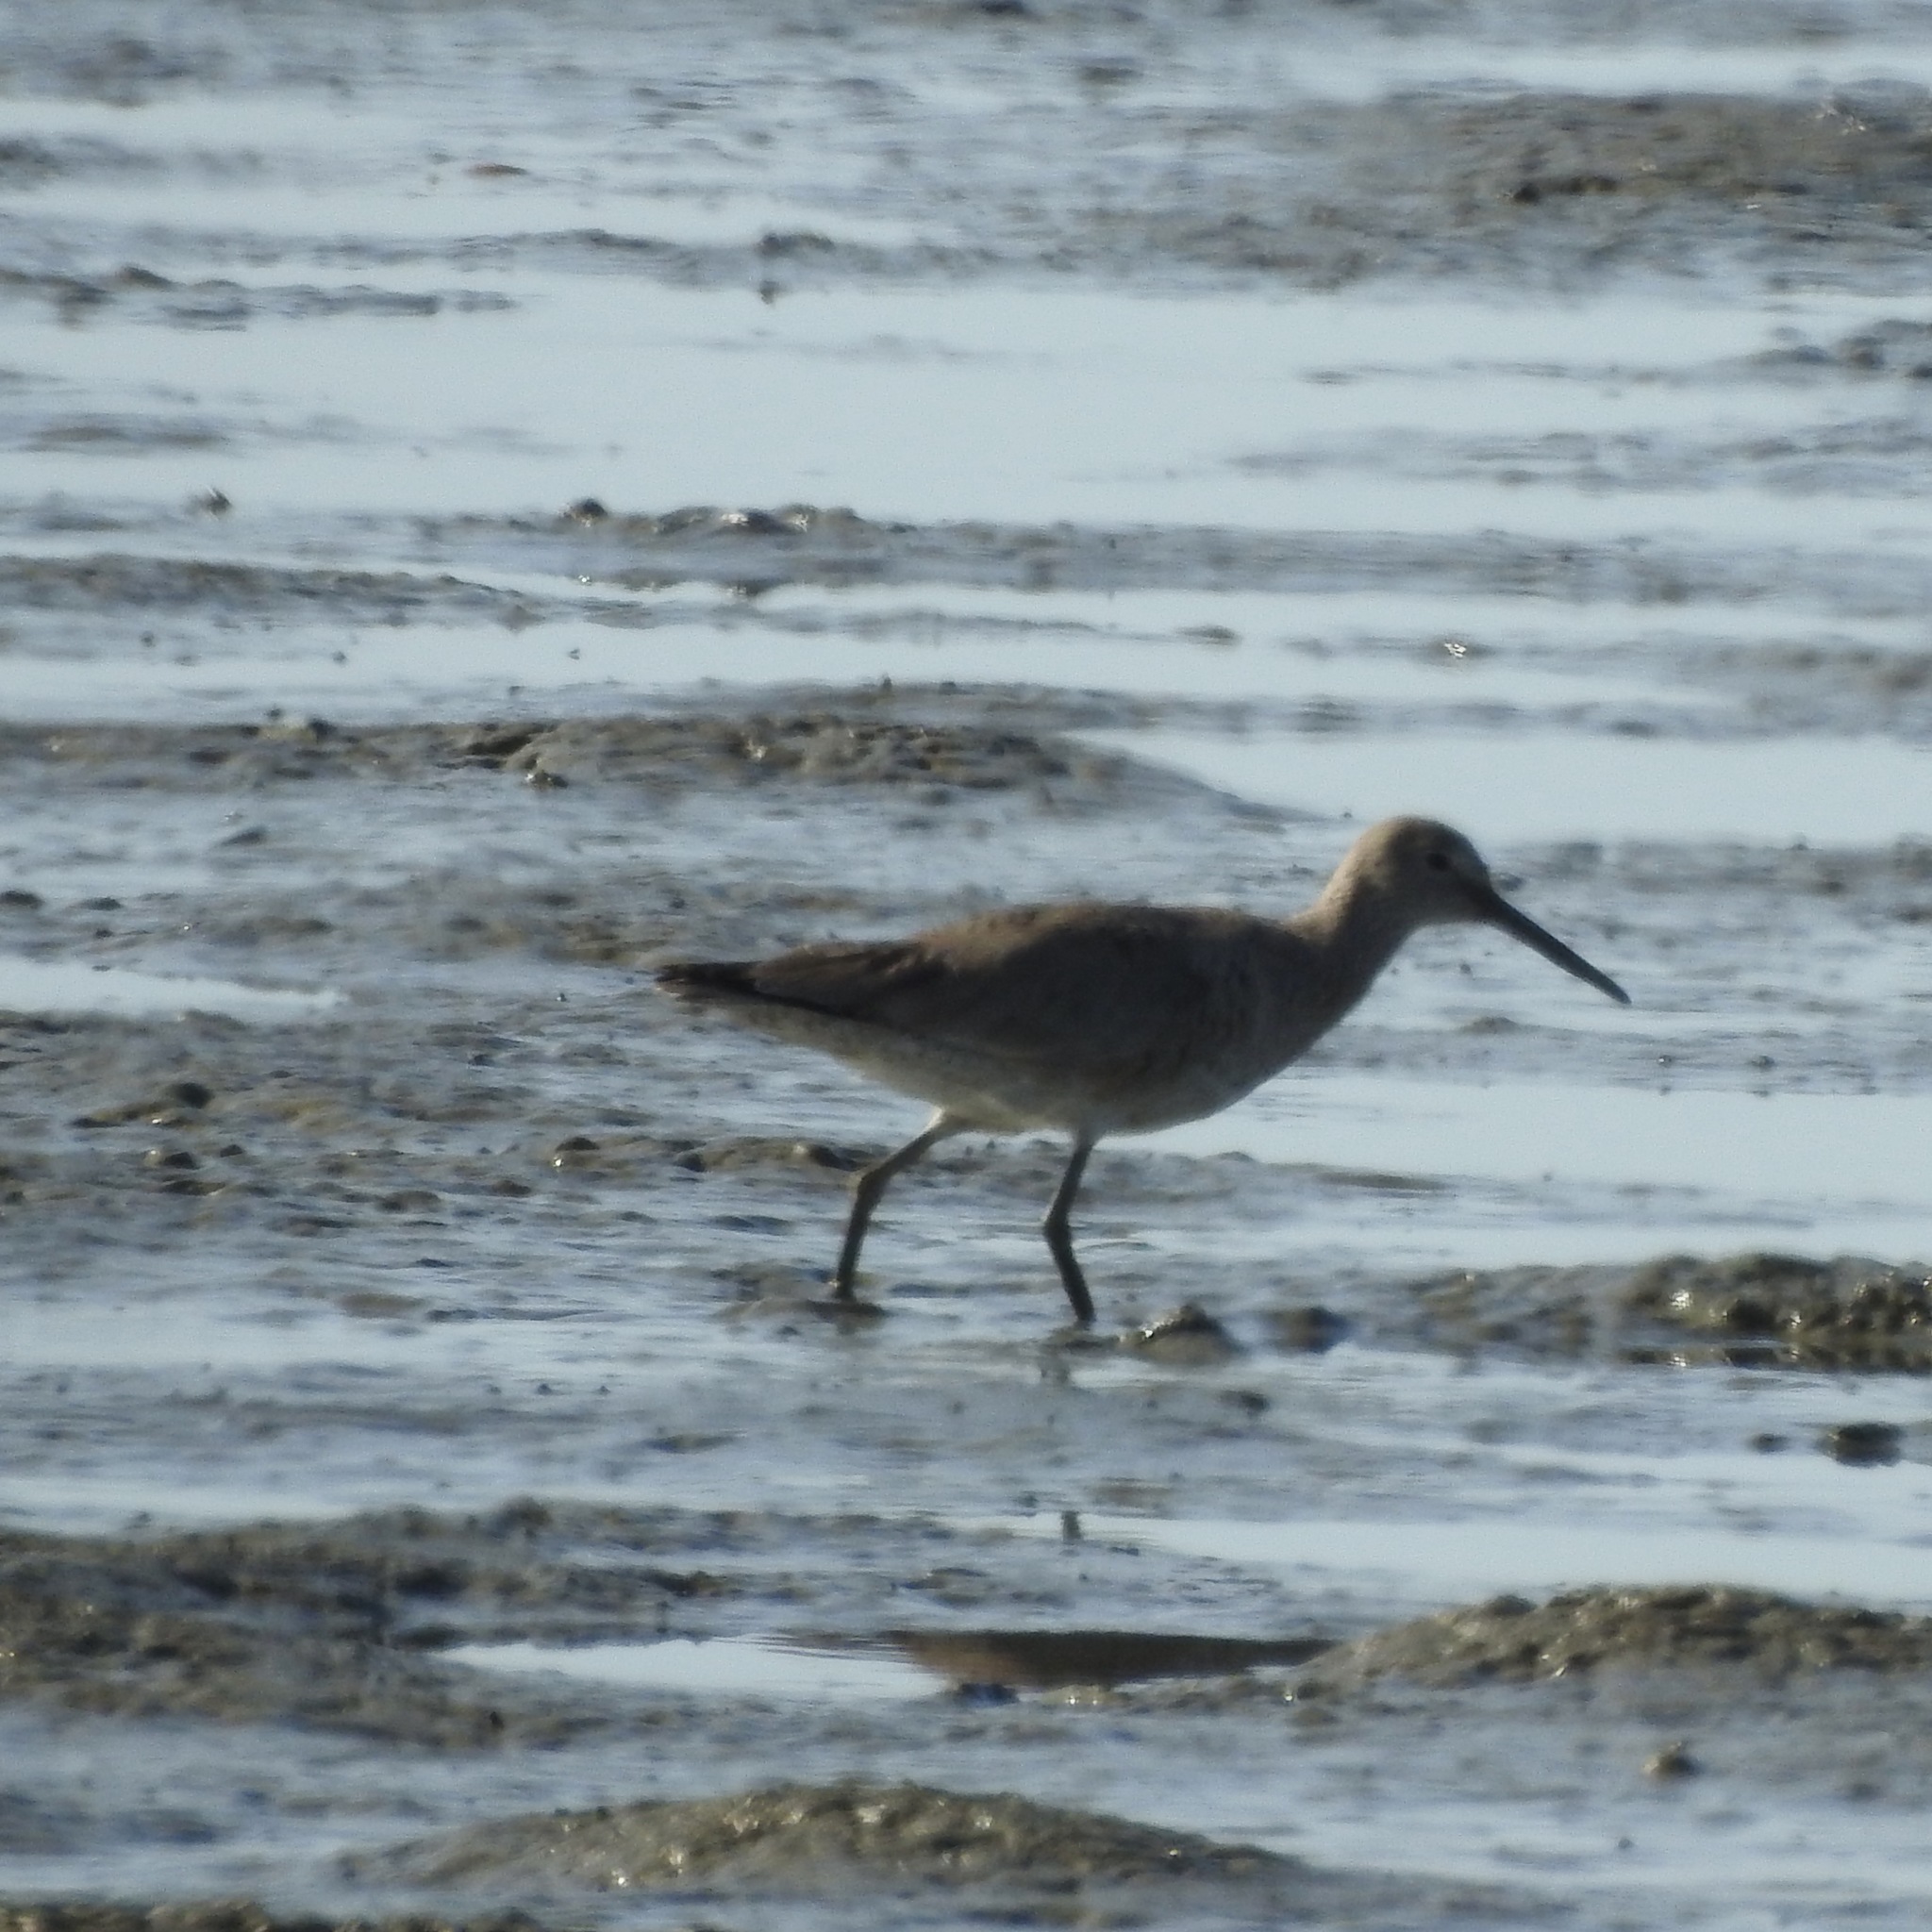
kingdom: Animalia
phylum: Chordata
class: Aves
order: Charadriiformes
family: Scolopacidae
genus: Tringa
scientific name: Tringa semipalmata
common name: Willet
